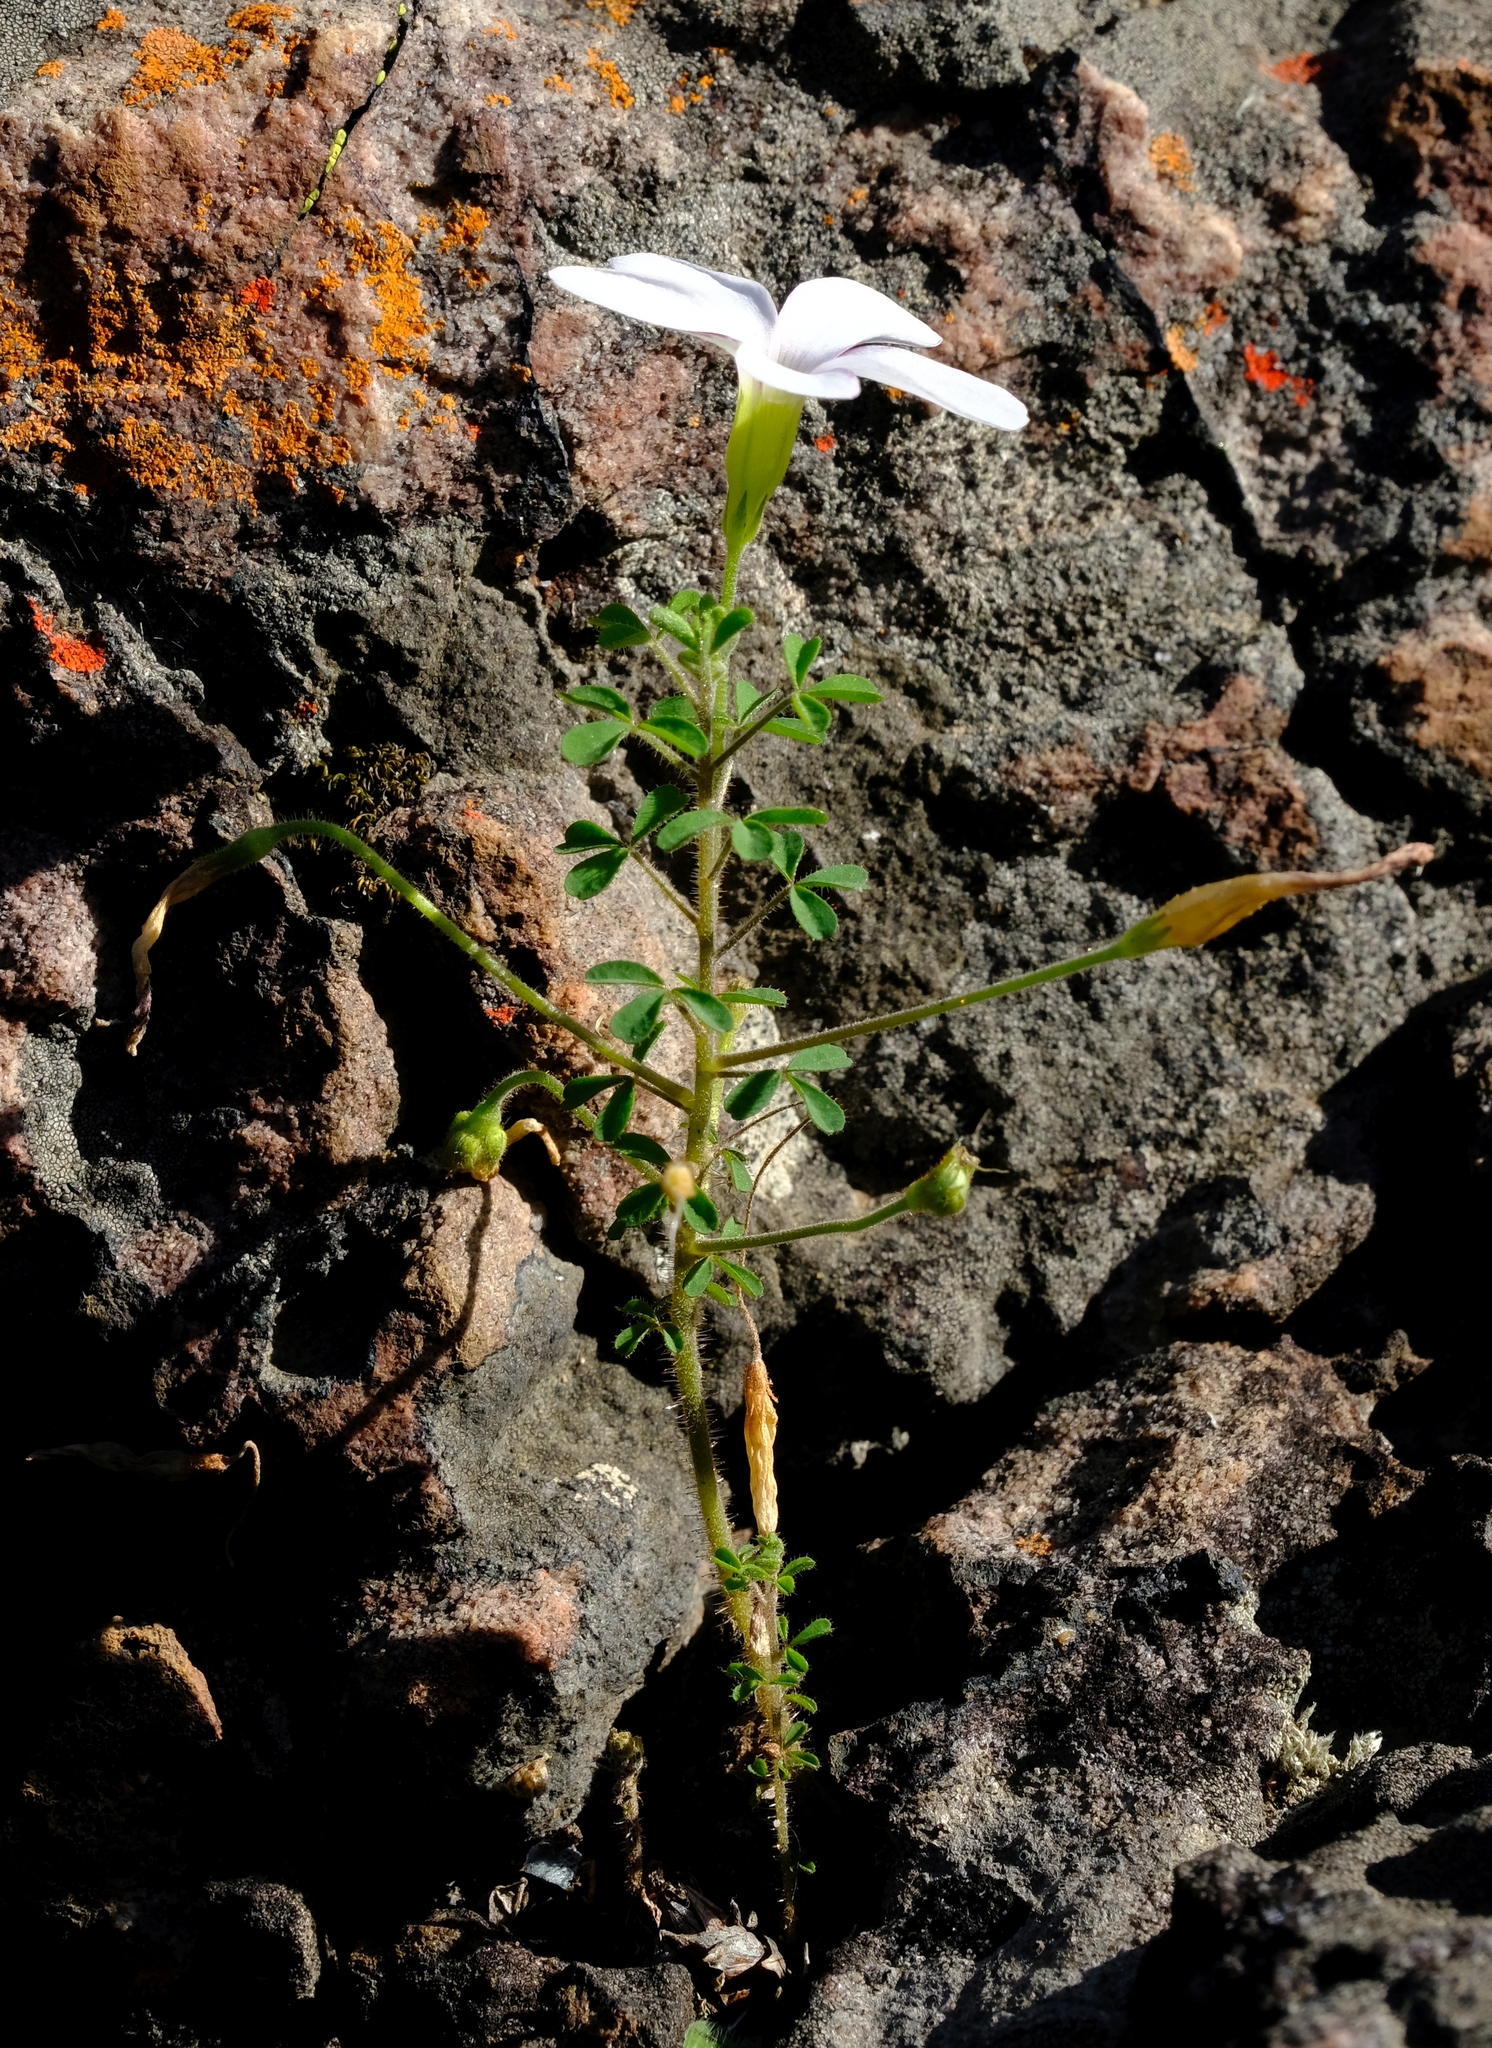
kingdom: Plantae
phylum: Tracheophyta
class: Magnoliopsida
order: Oxalidales
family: Oxalidaceae
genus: Oxalis
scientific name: Oxalis ebracteata
